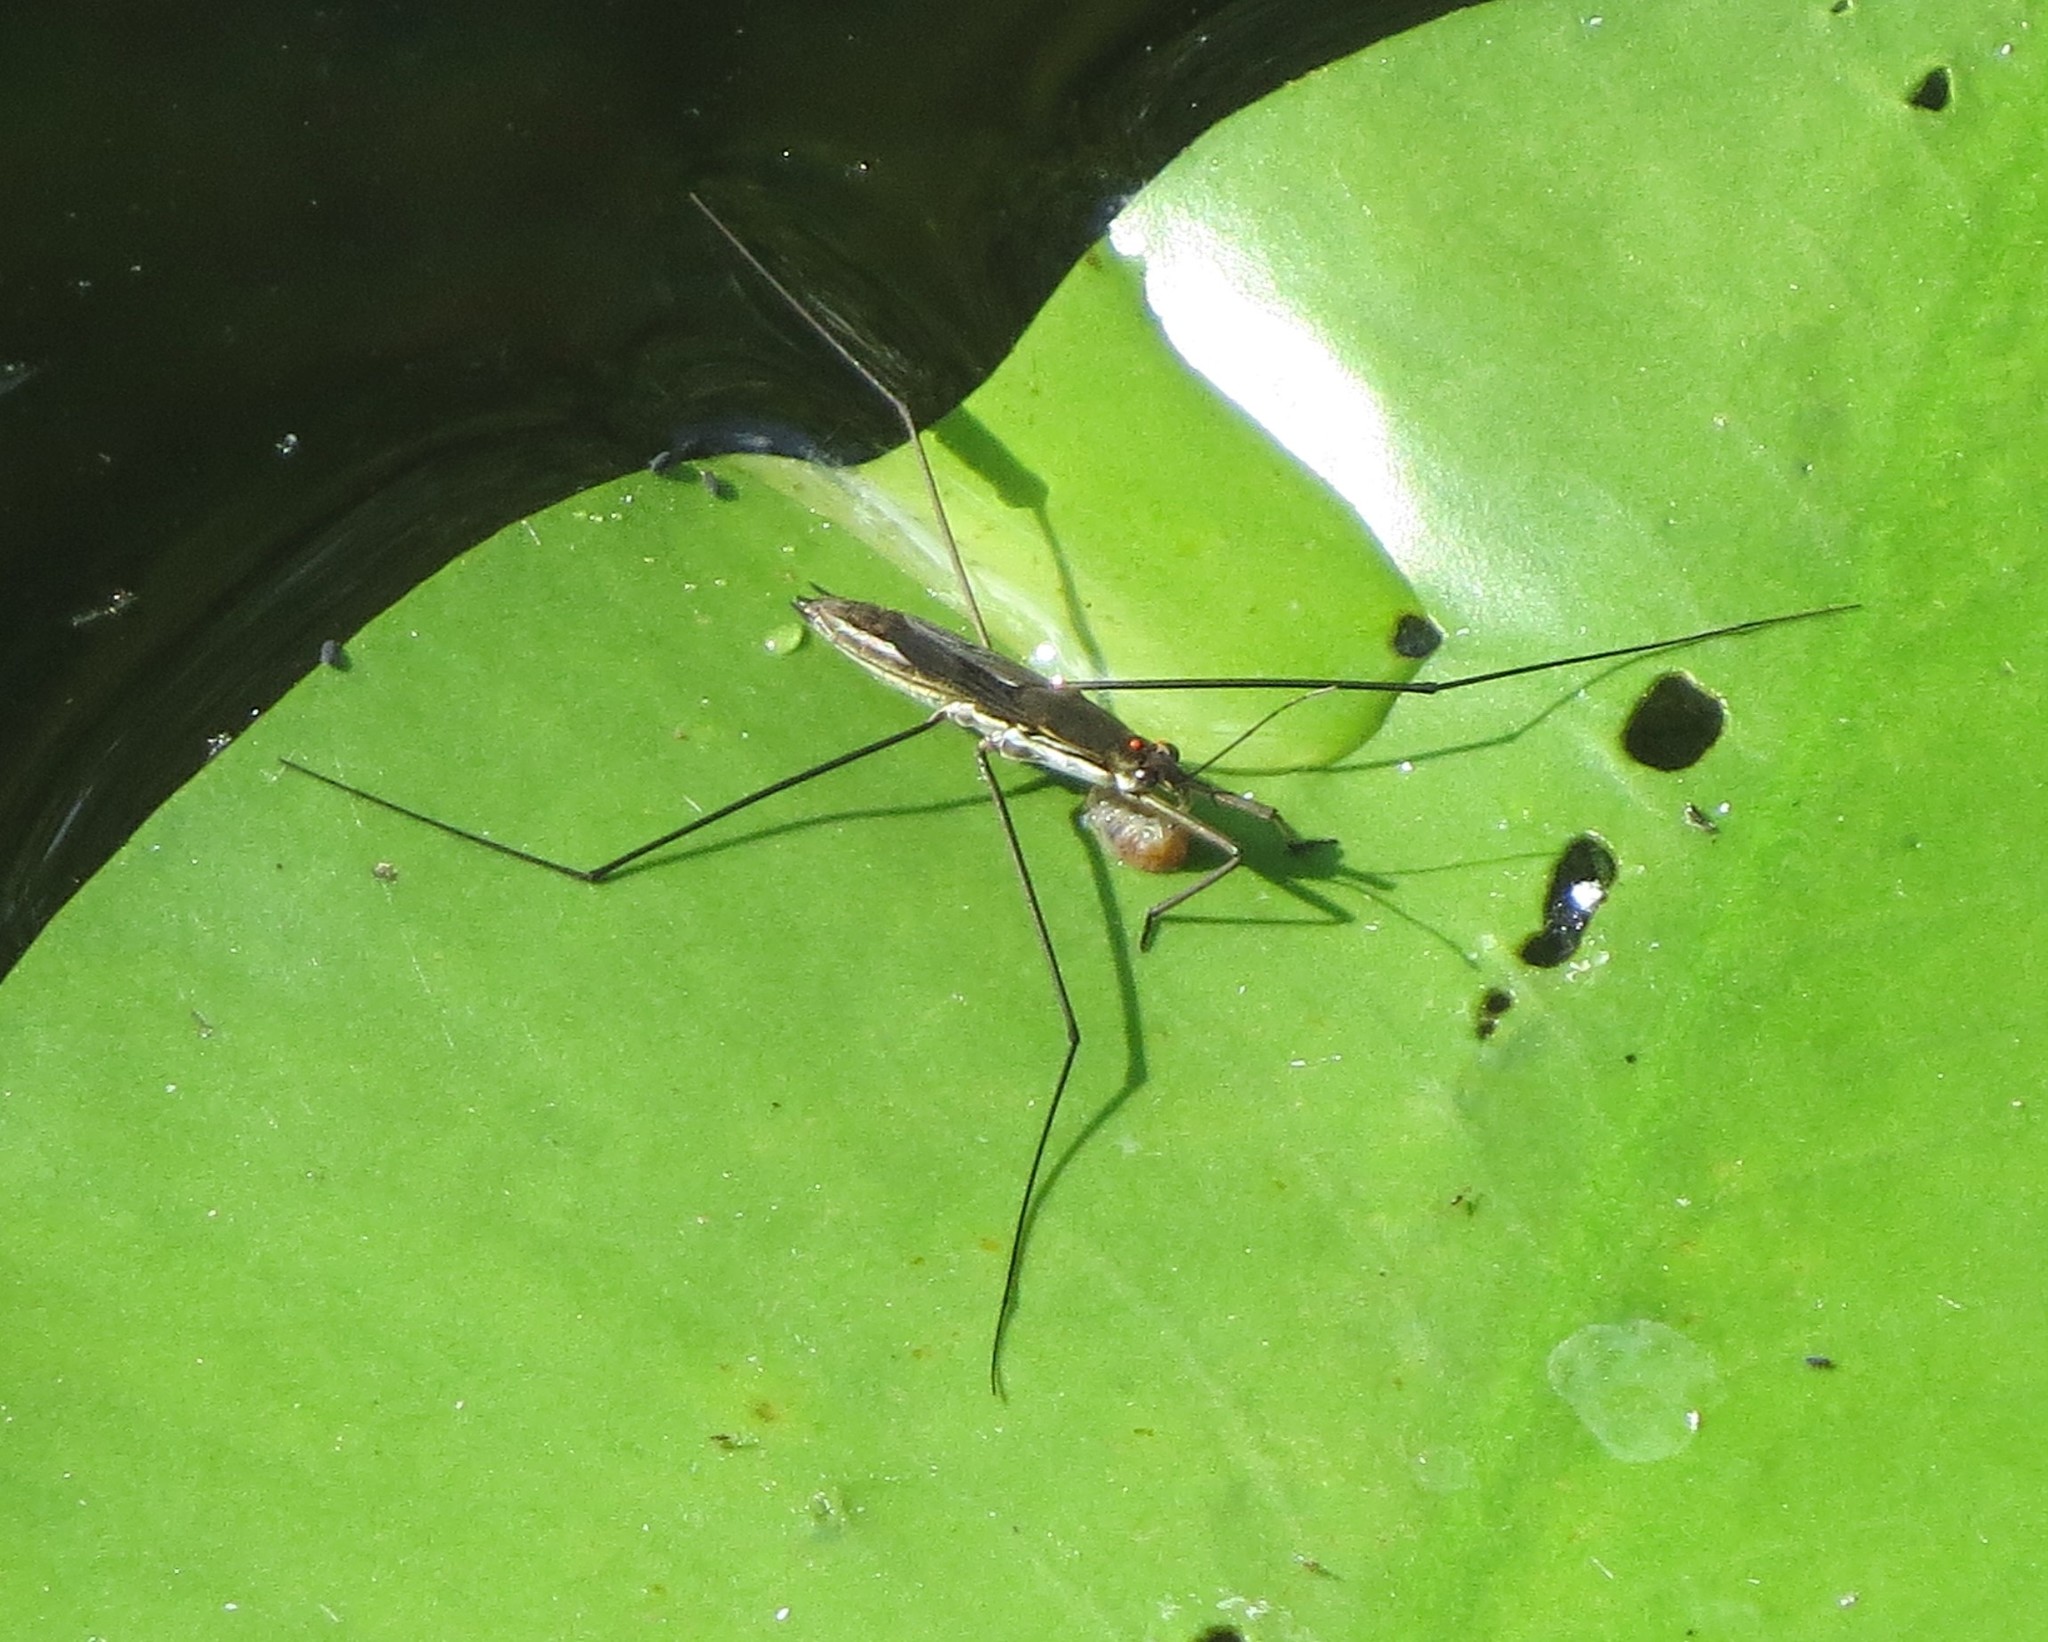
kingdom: Animalia
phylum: Arthropoda
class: Insecta
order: Hemiptera
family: Gerridae
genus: Aquarius
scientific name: Aquarius paludum
